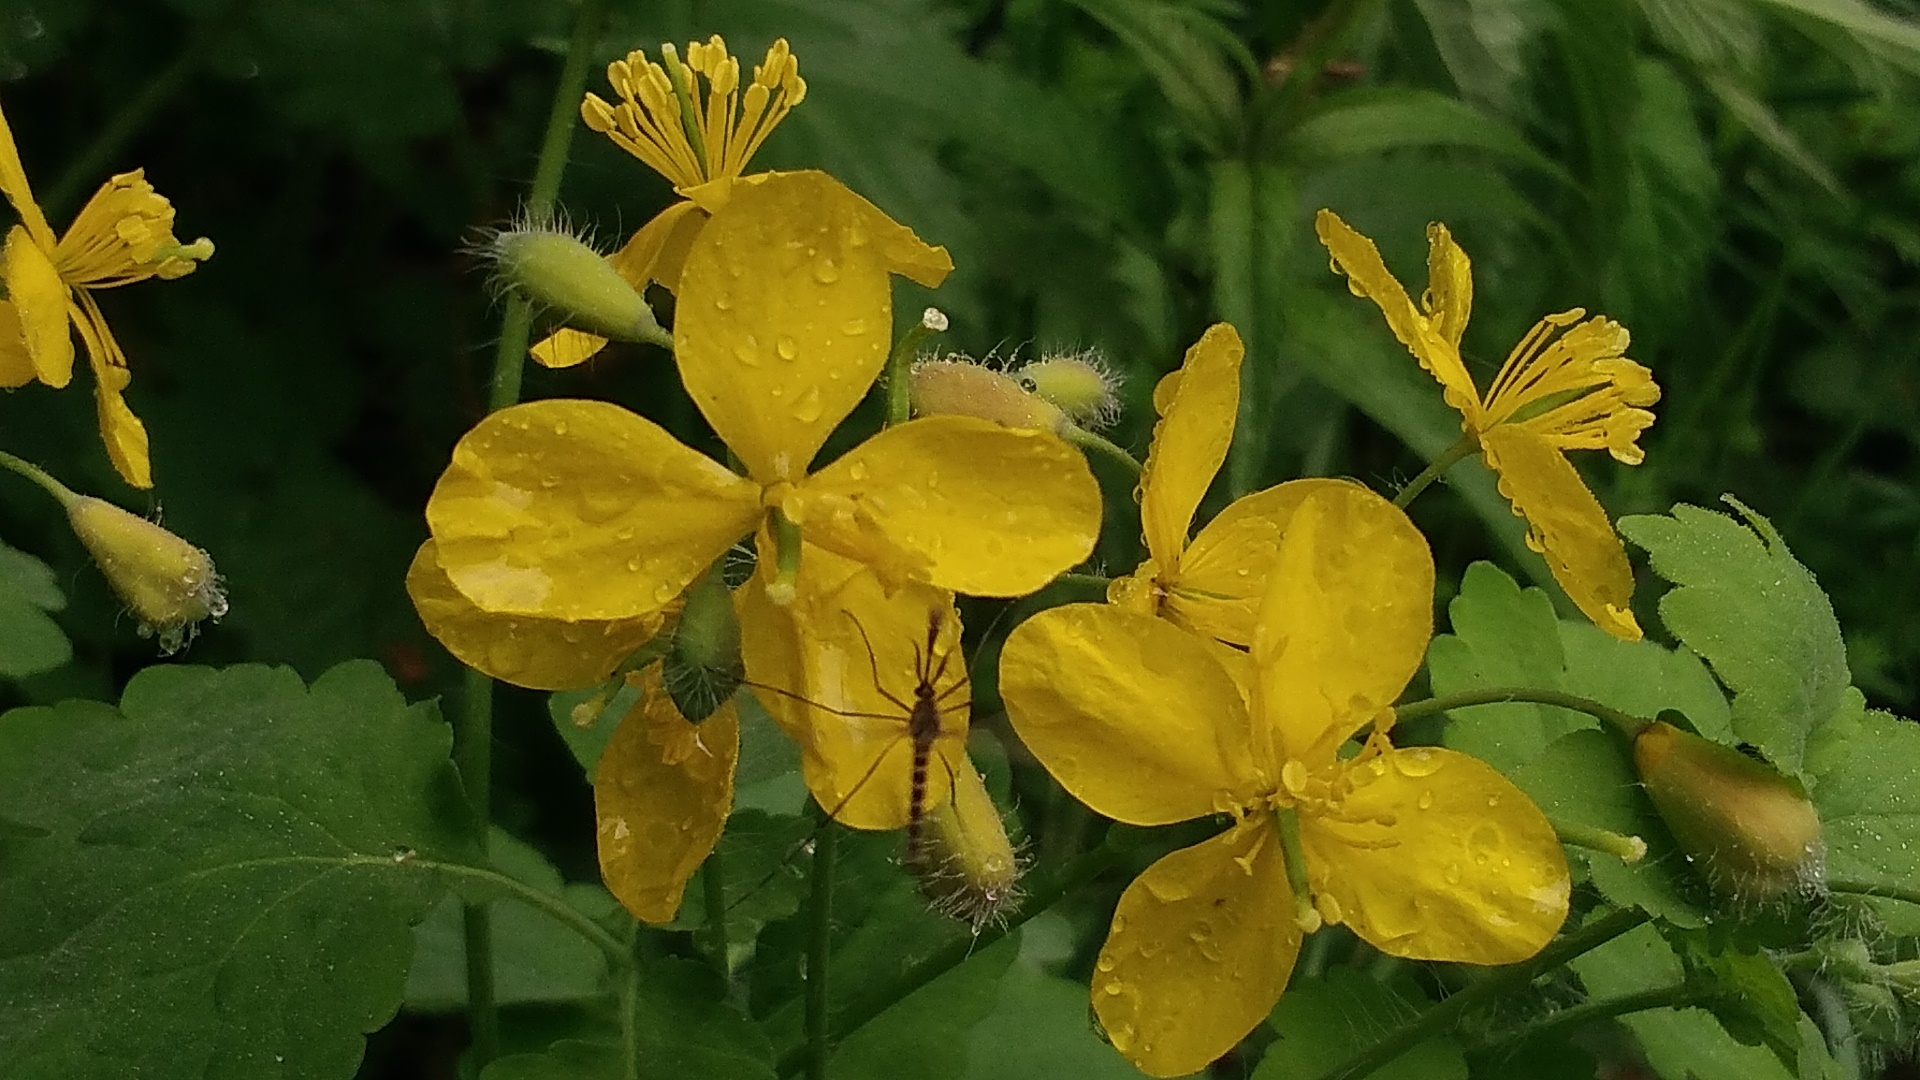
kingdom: Plantae
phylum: Tracheophyta
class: Magnoliopsida
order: Ranunculales
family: Papaveraceae
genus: Chelidonium
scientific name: Chelidonium majus
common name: Greater celandine
